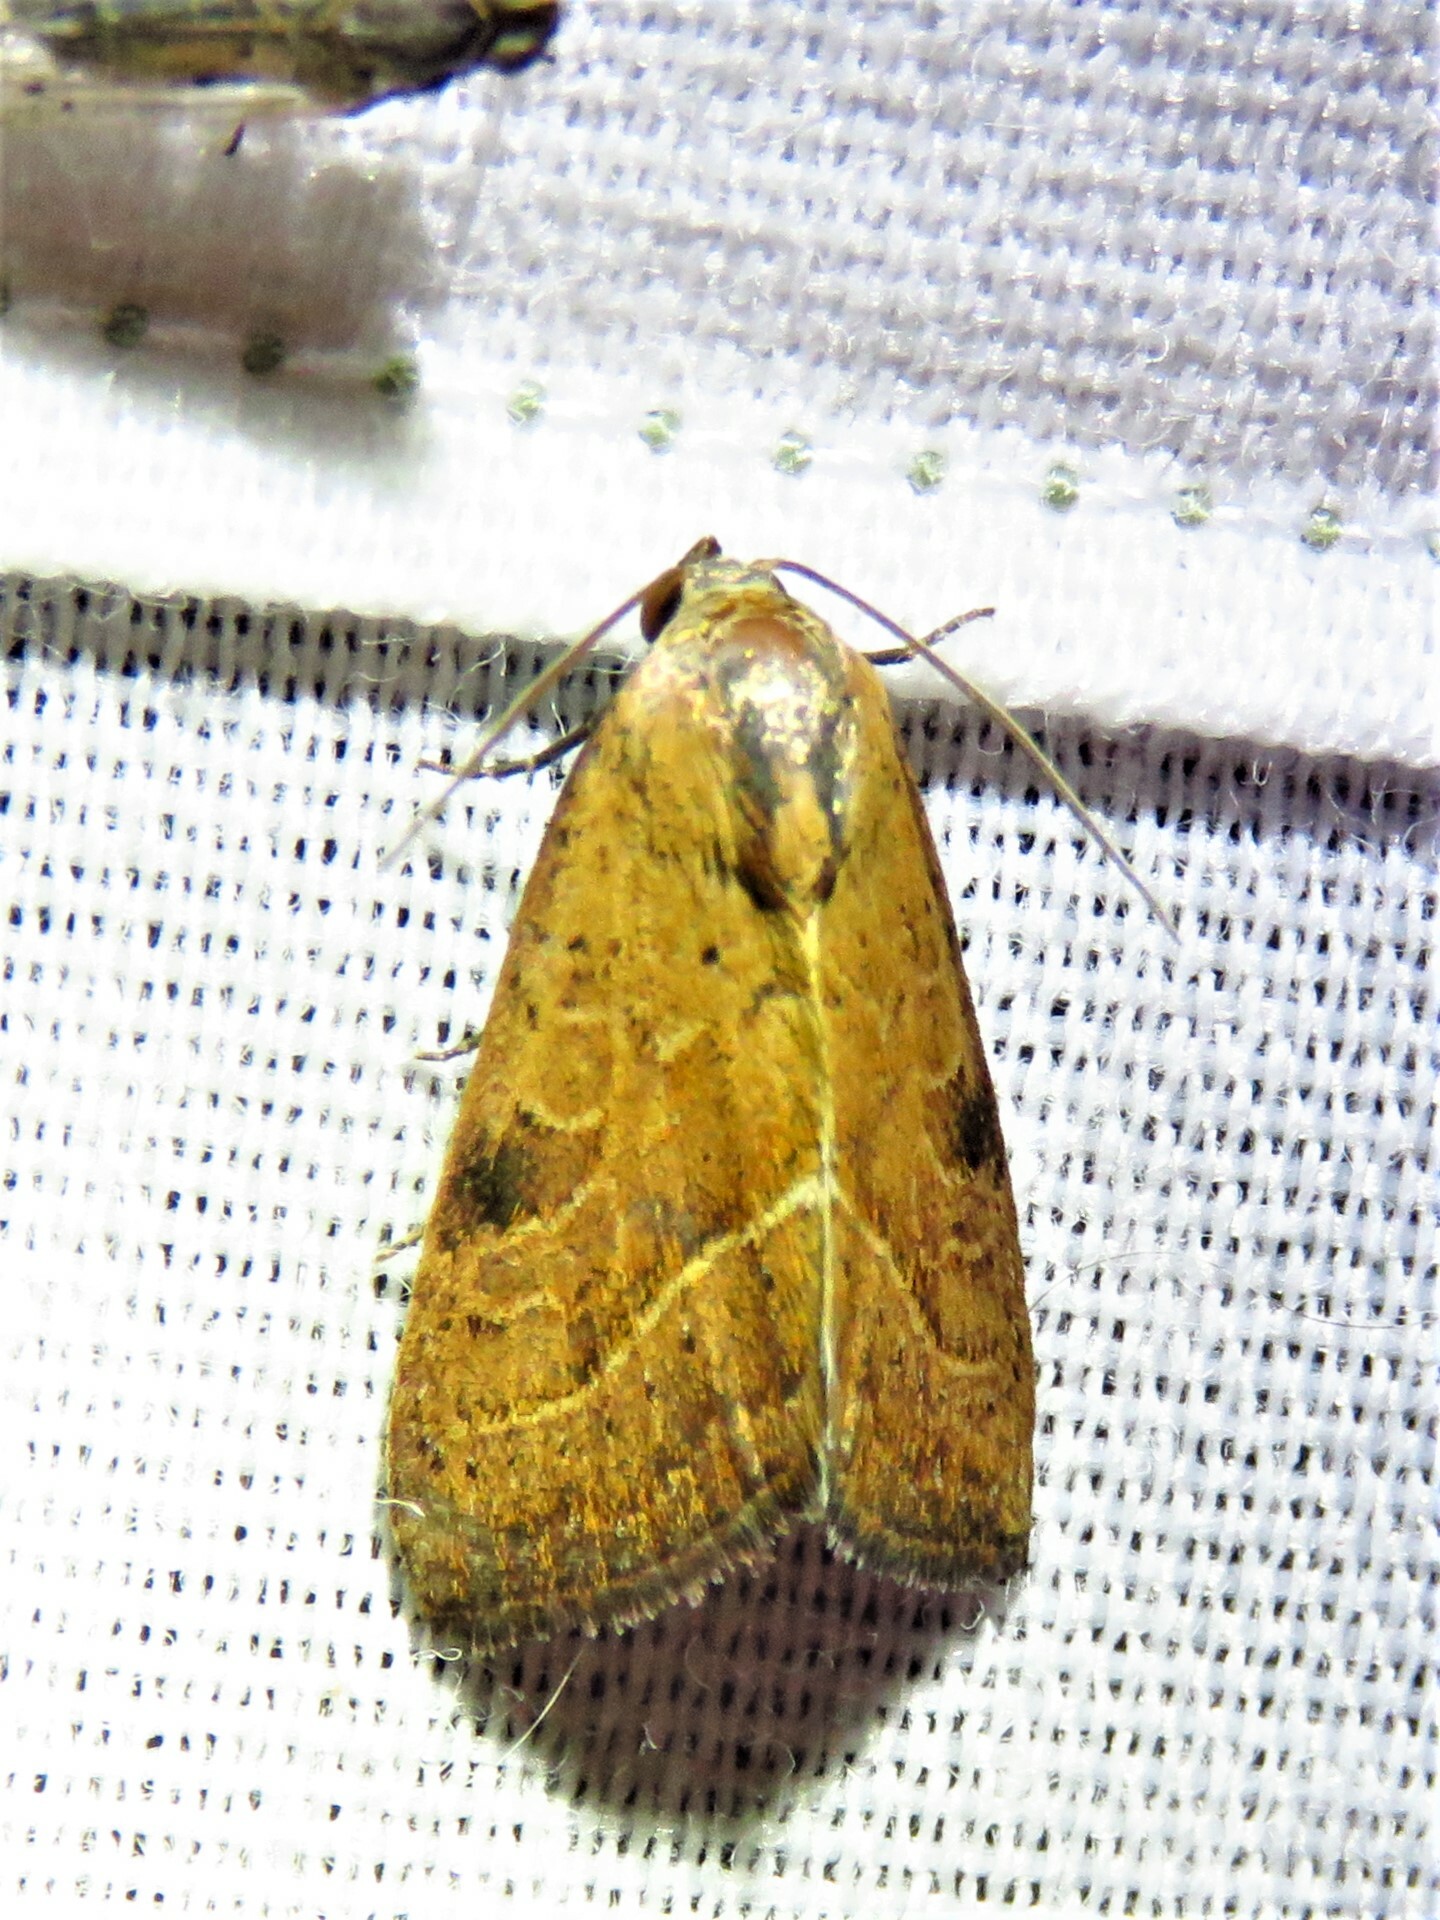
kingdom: Animalia
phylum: Arthropoda
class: Insecta
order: Lepidoptera
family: Noctuidae
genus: Galgula
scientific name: Galgula partita
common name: Wedgeling
